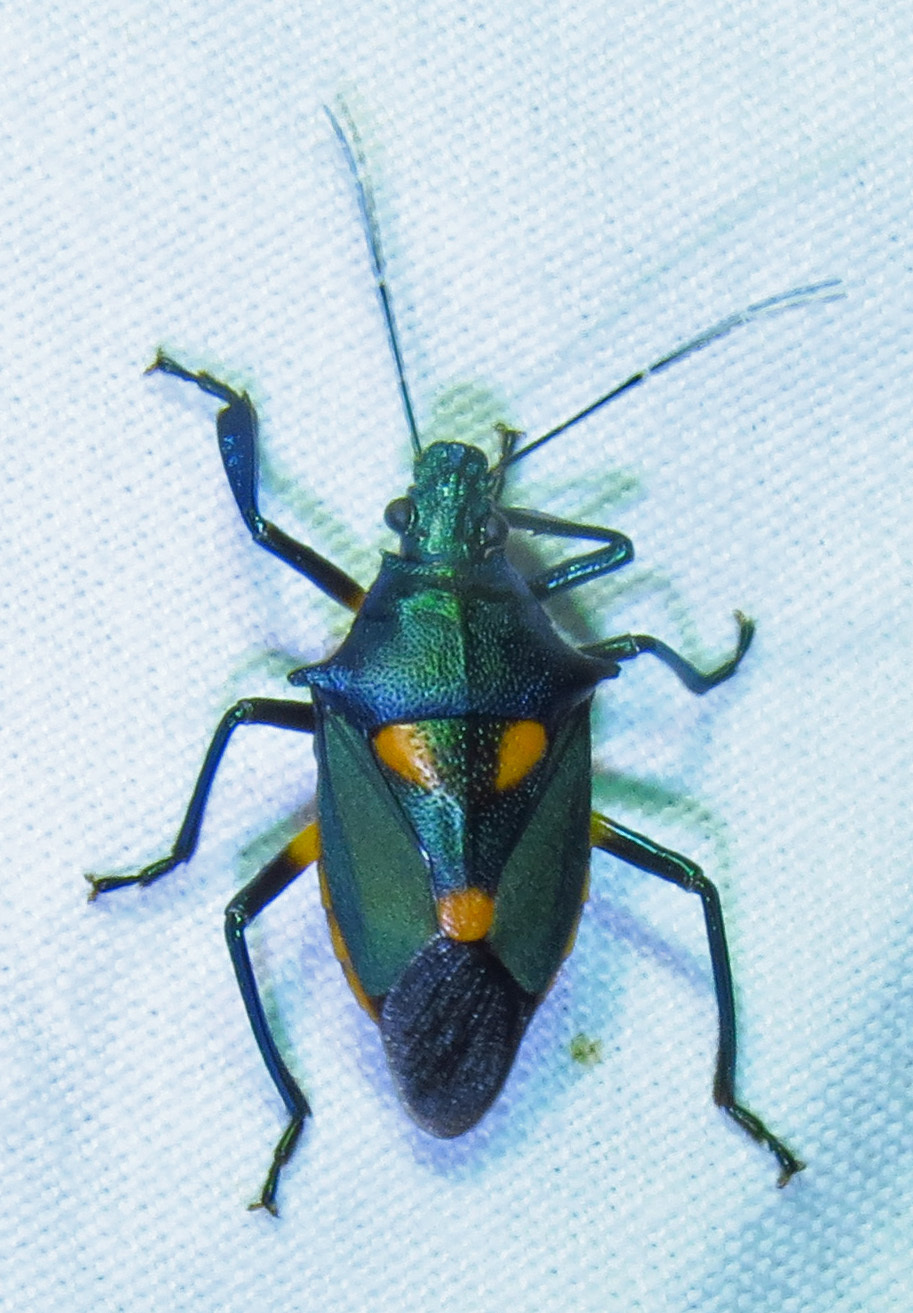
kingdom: Animalia
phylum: Arthropoda
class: Insecta
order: Hemiptera
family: Pentatomidae
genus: Euthyrhynchus
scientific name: Euthyrhynchus floridanus
